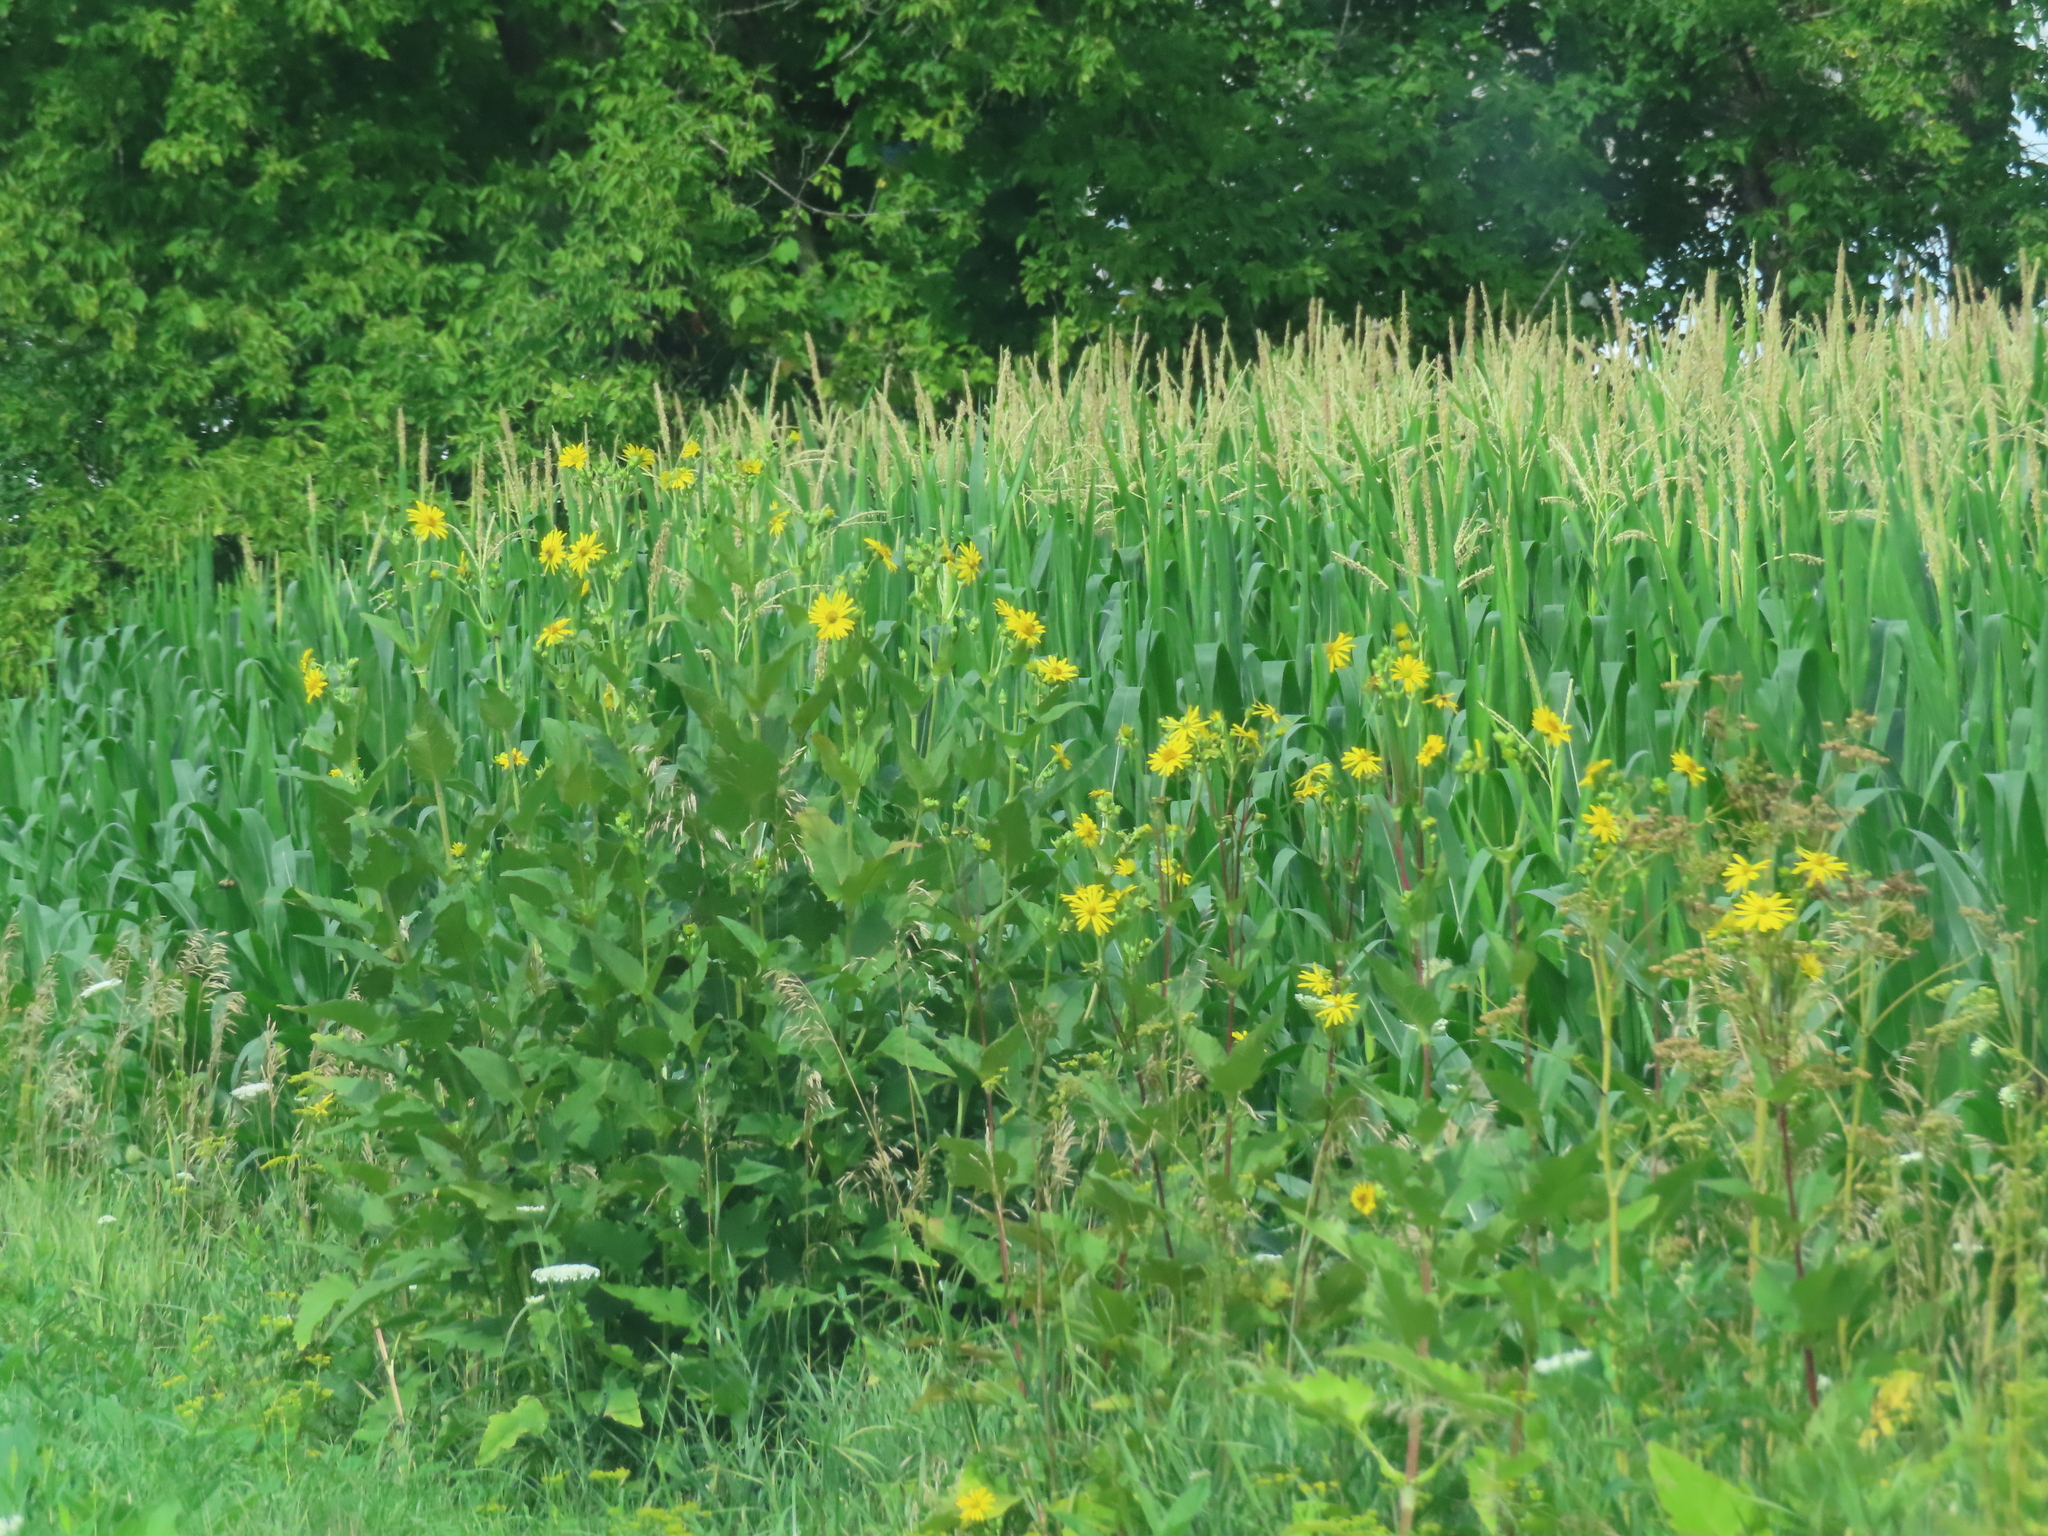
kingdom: Plantae
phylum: Tracheophyta
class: Magnoliopsida
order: Asterales
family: Asteraceae
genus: Silphium
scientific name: Silphium perfoliatum
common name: Cup-plant
